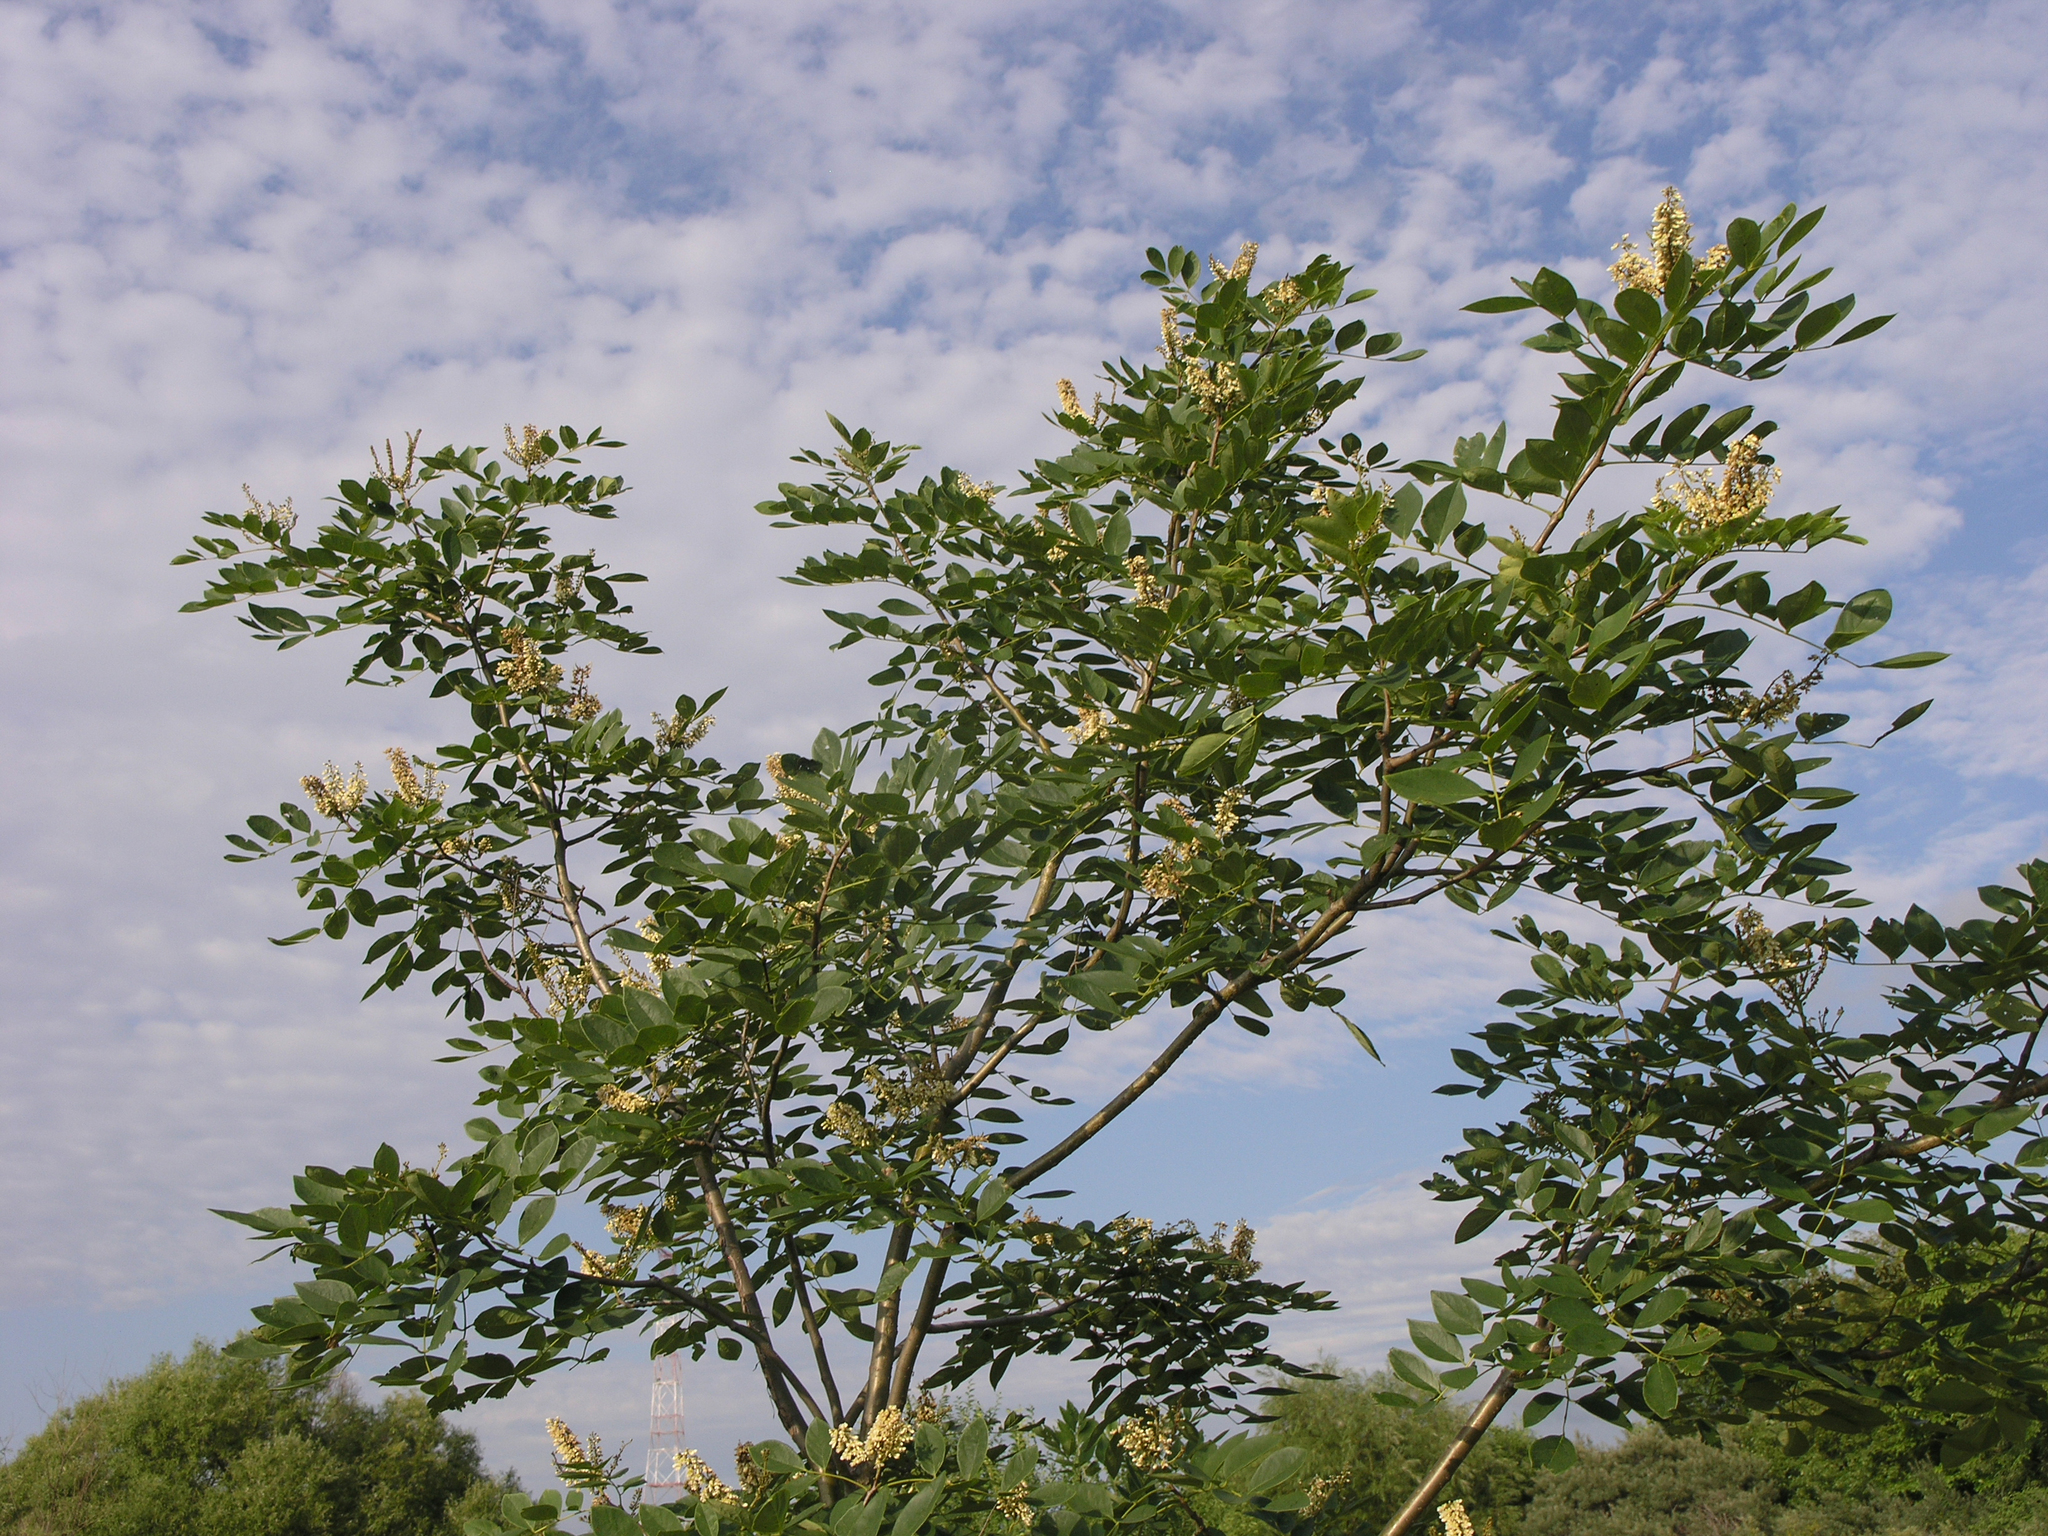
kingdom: Plantae
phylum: Tracheophyta
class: Magnoliopsida
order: Fabales
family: Fabaceae
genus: Maackia
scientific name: Maackia amurensis
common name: Amur maackia
